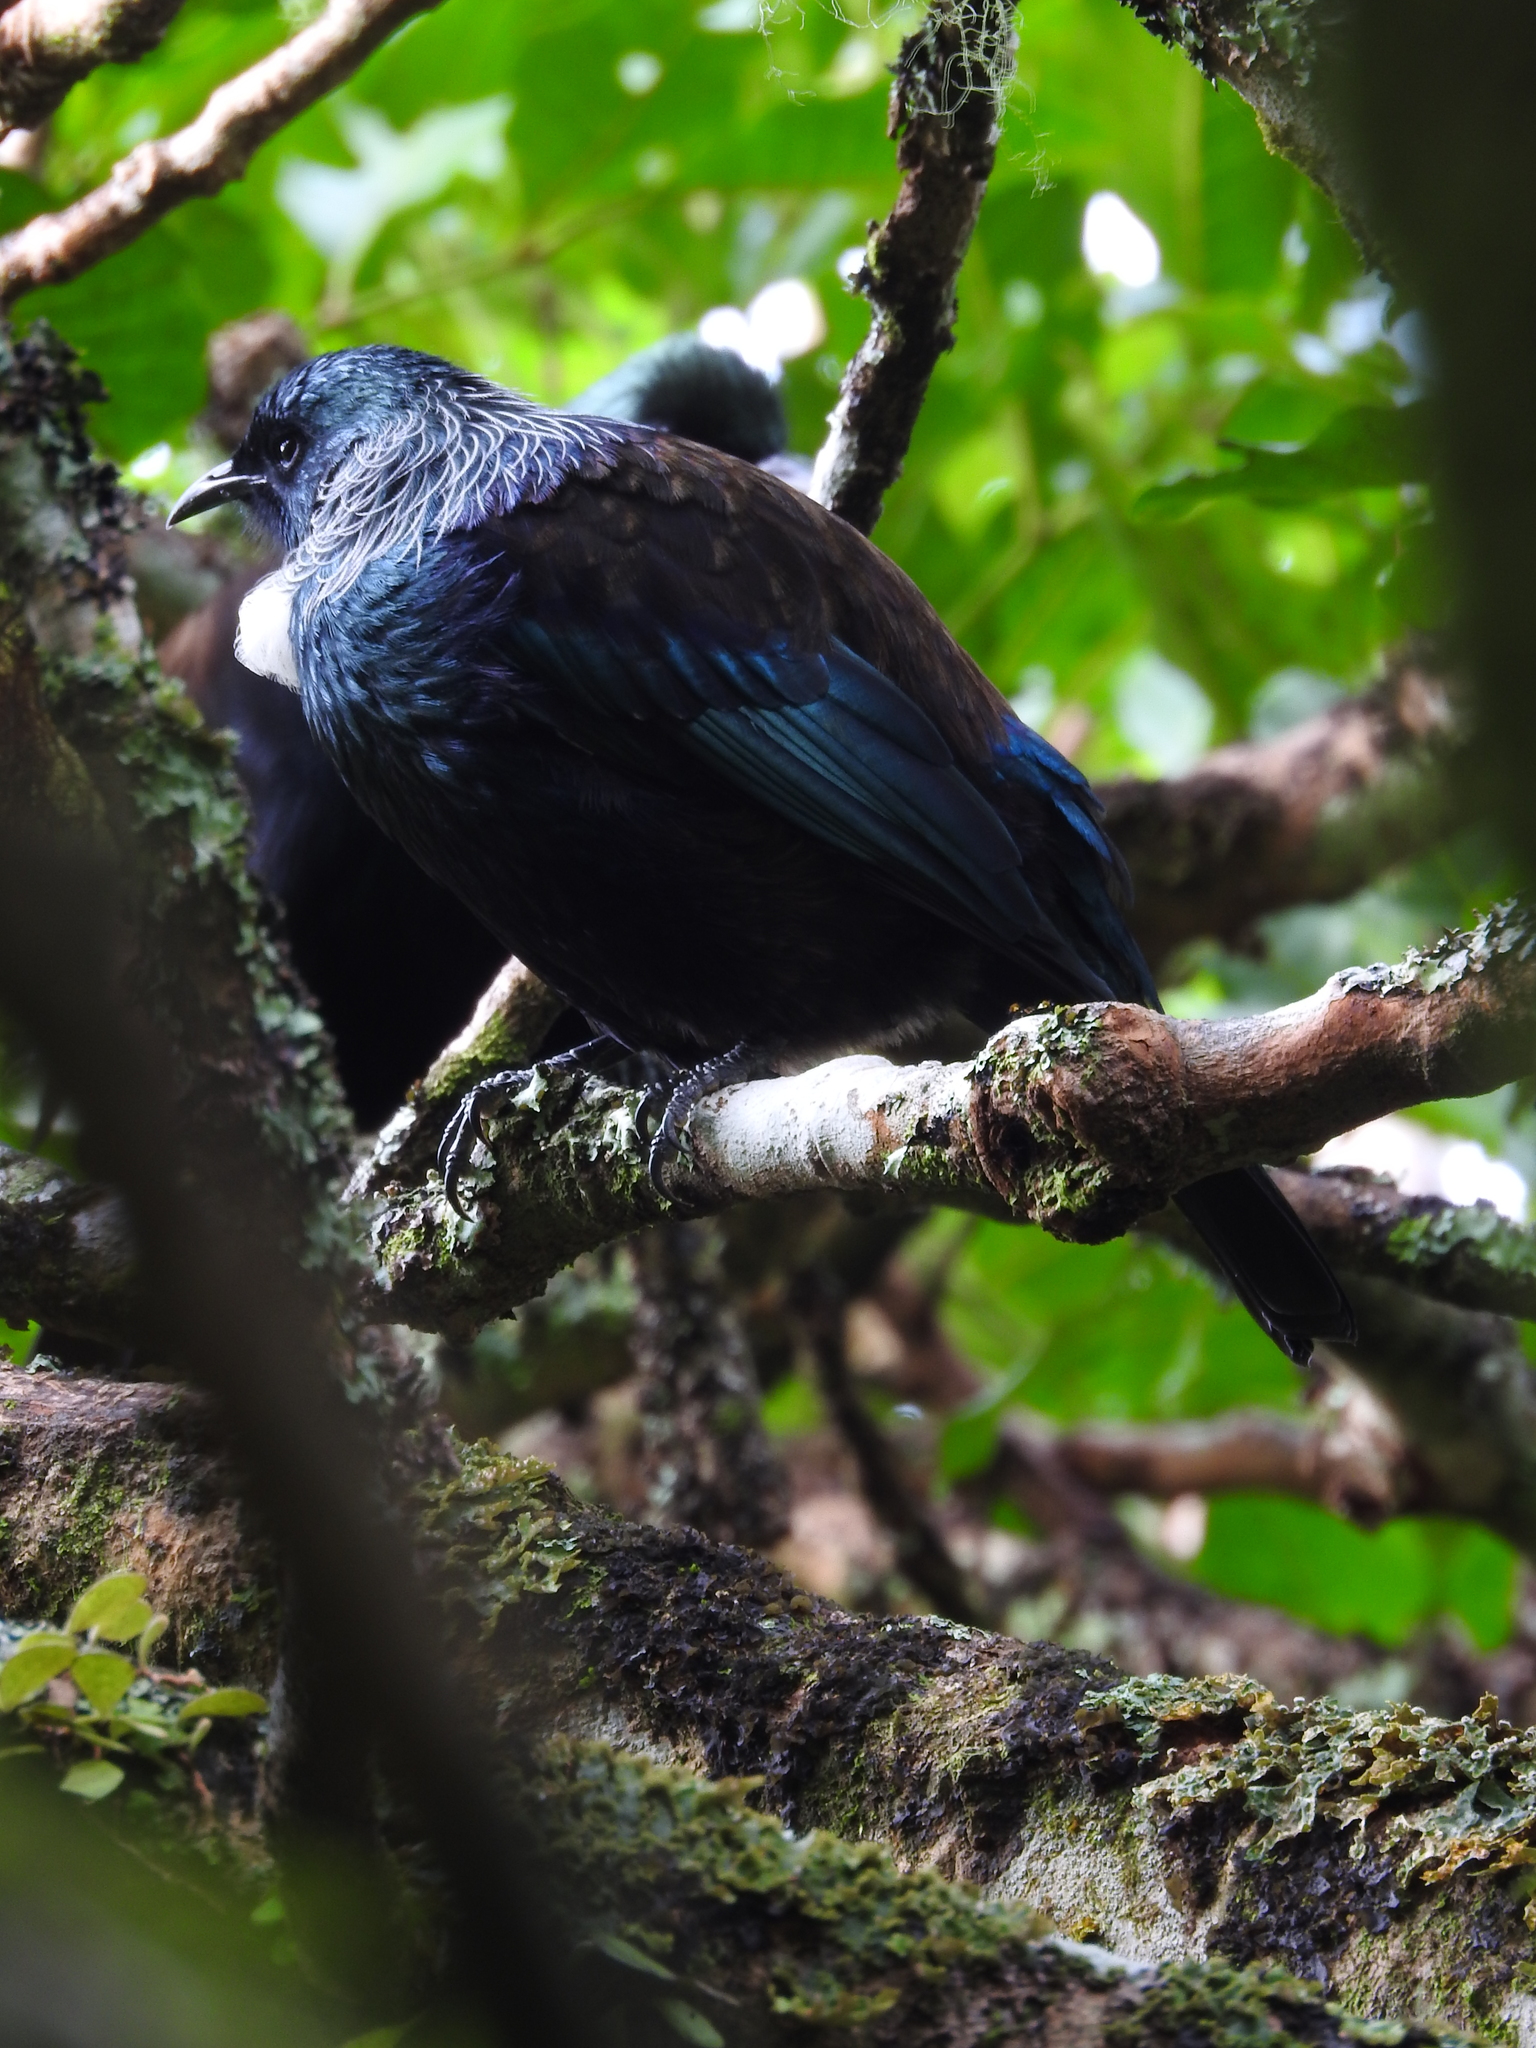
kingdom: Animalia
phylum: Chordata
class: Aves
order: Passeriformes
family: Meliphagidae
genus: Prosthemadera
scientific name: Prosthemadera novaeseelandiae
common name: Tui
